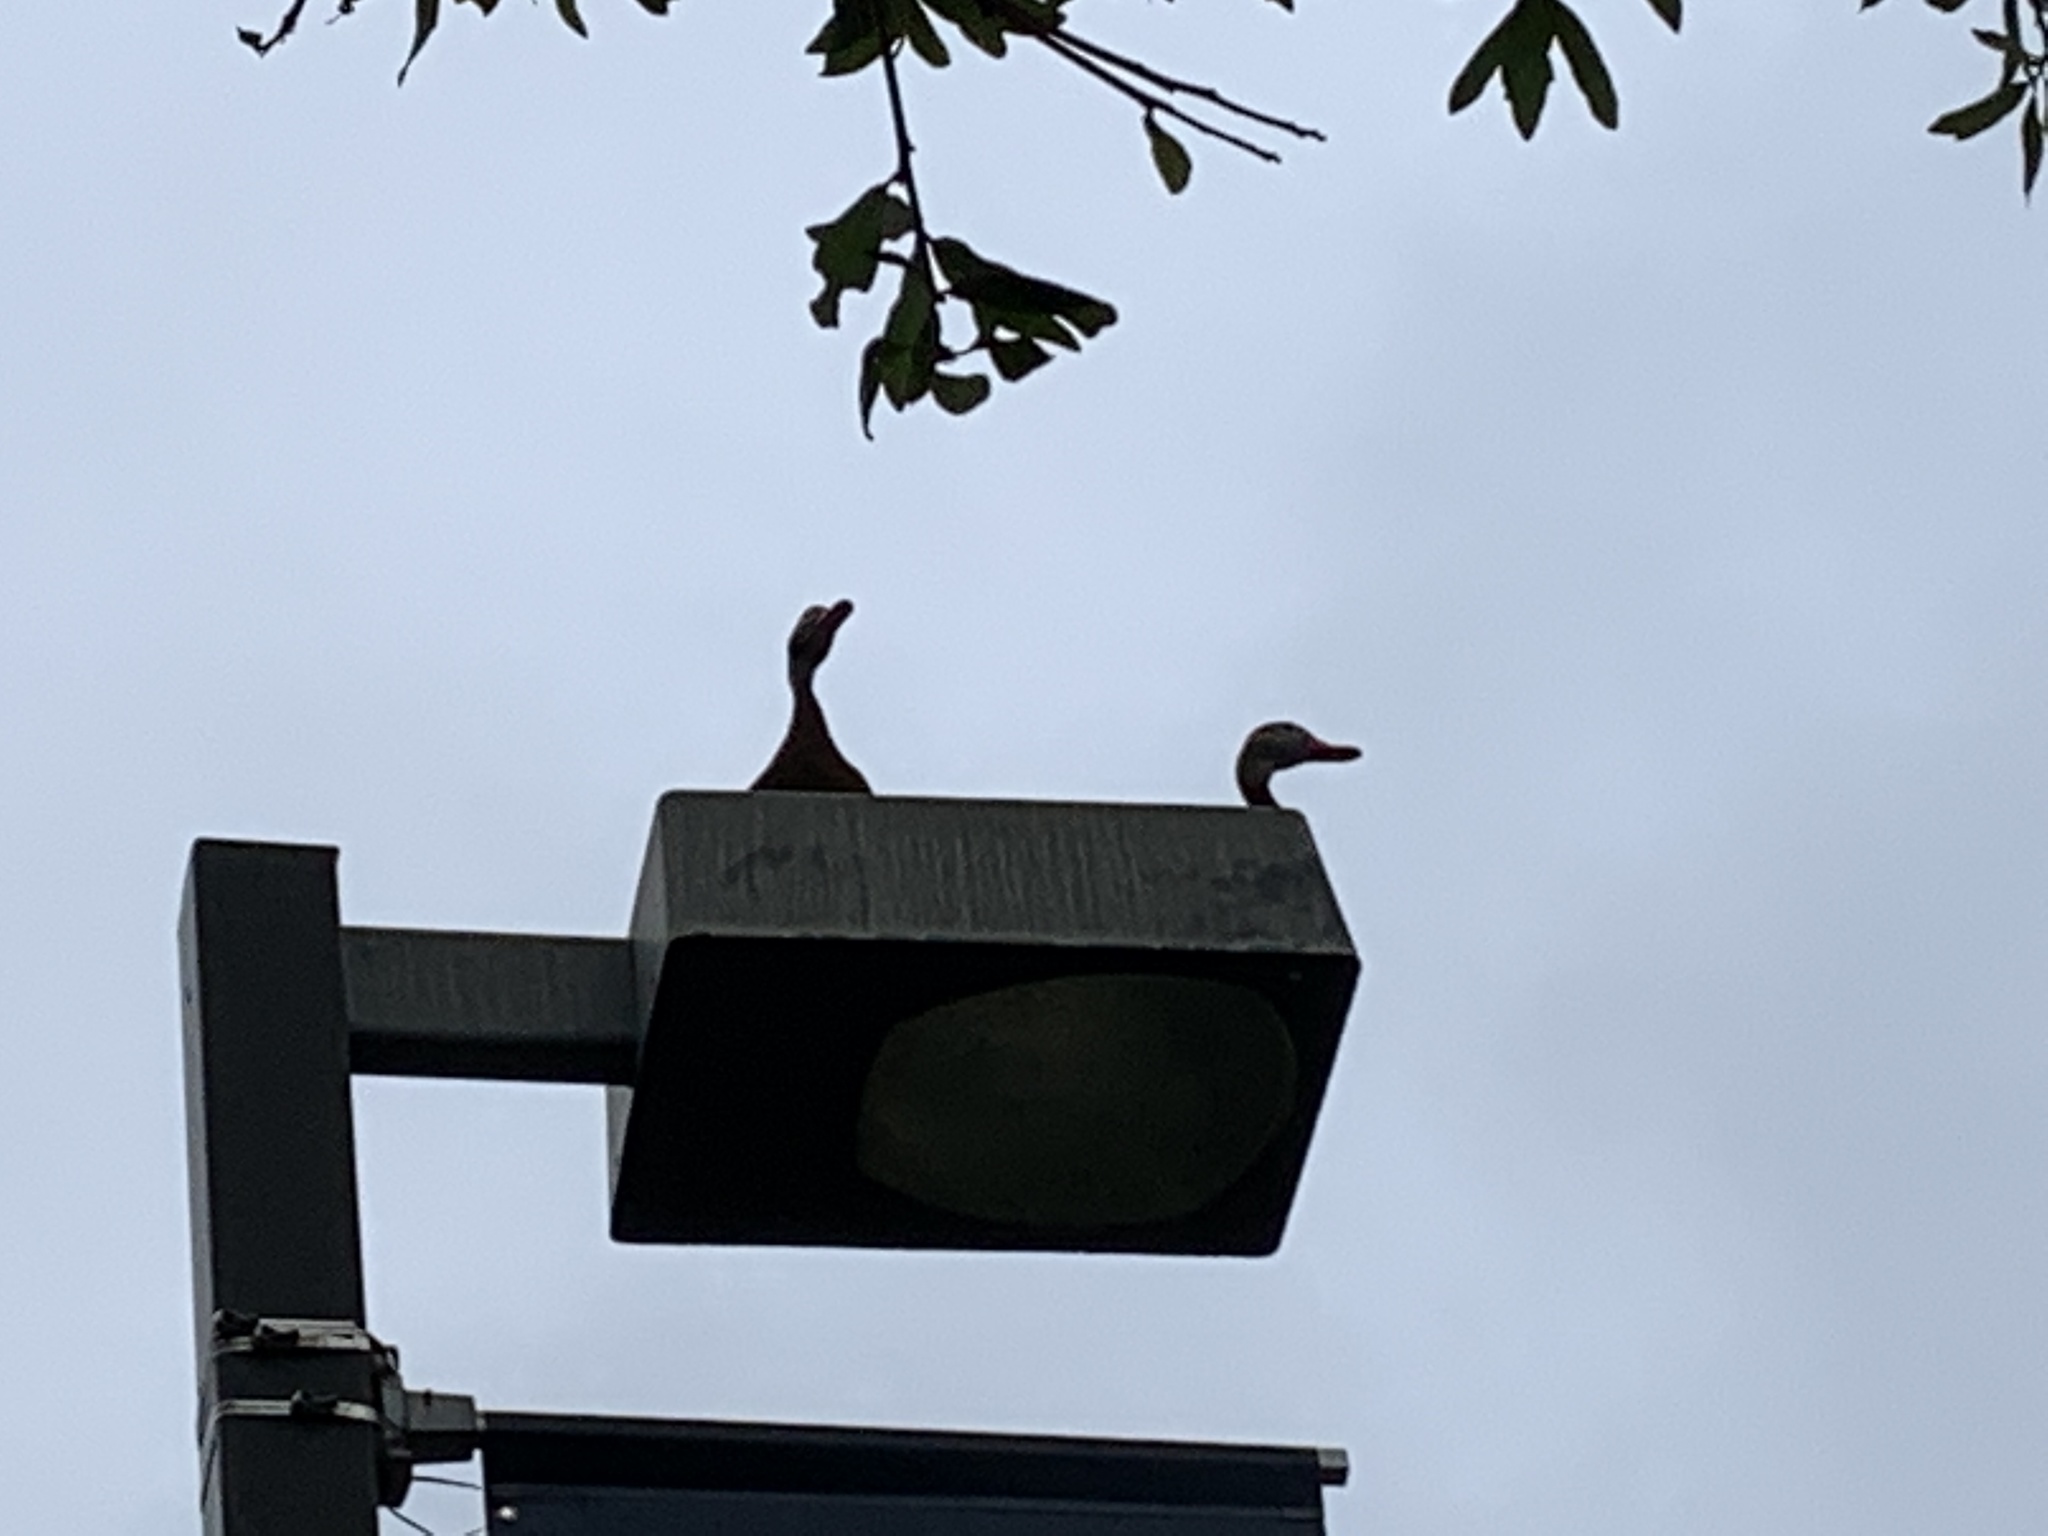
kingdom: Animalia
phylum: Chordata
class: Aves
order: Anseriformes
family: Anatidae
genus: Dendrocygna
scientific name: Dendrocygna autumnalis
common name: Black-bellied whistling duck
